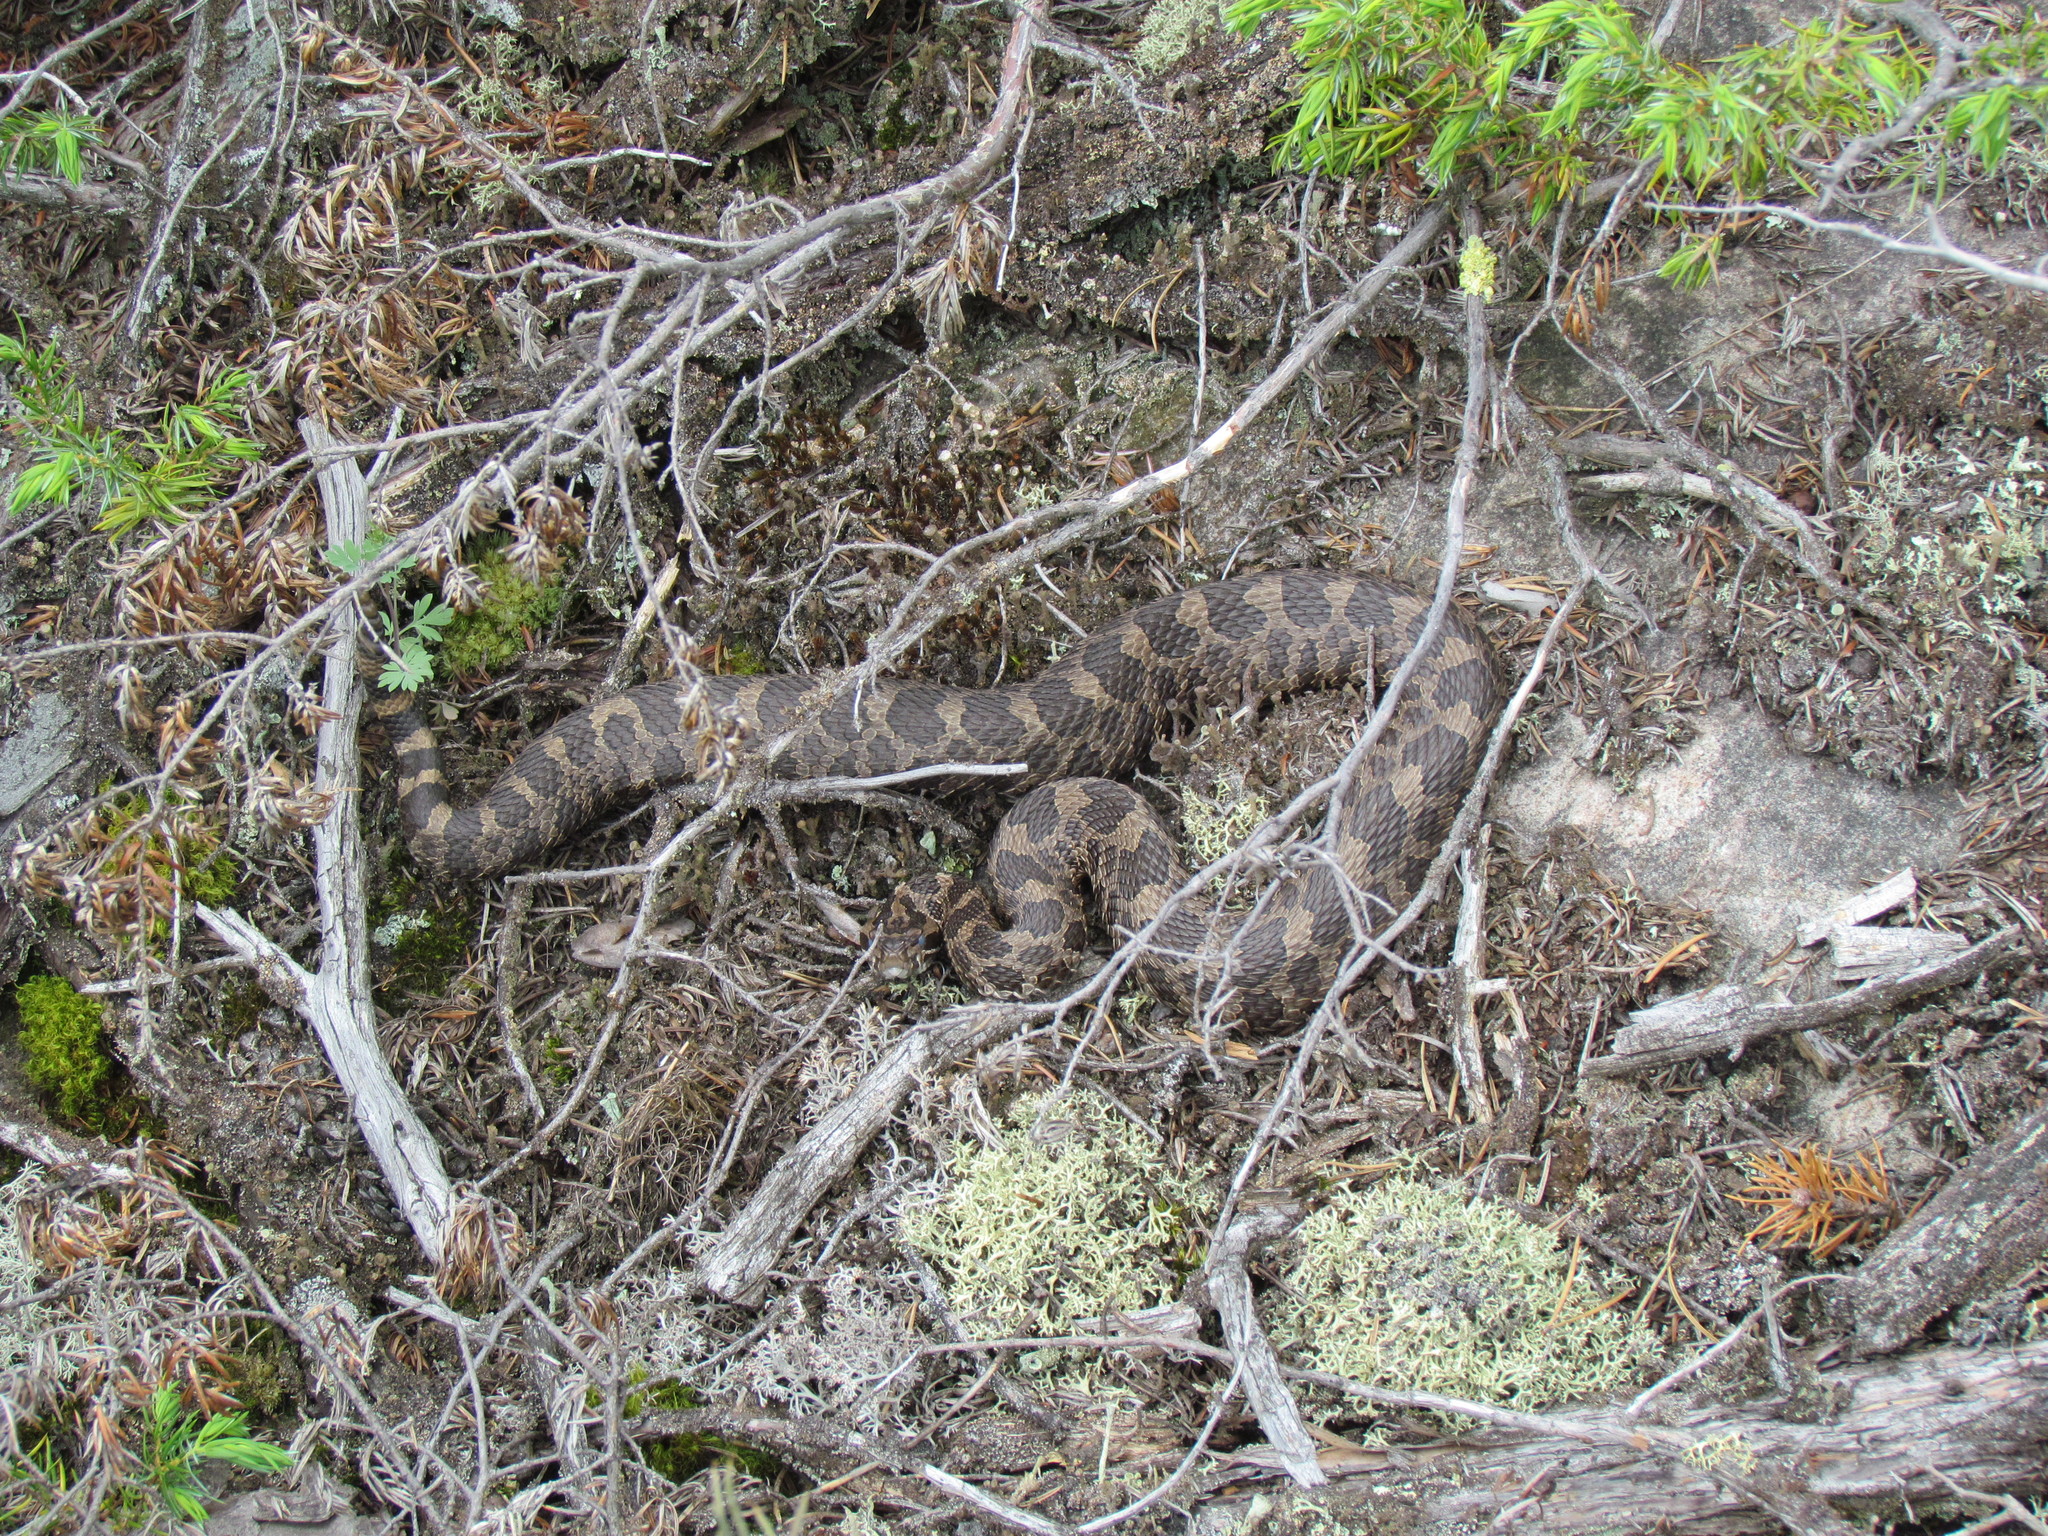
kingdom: Animalia
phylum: Chordata
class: Squamata
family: Viperidae
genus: Sistrurus
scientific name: Sistrurus catenatus
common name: Massasauga
